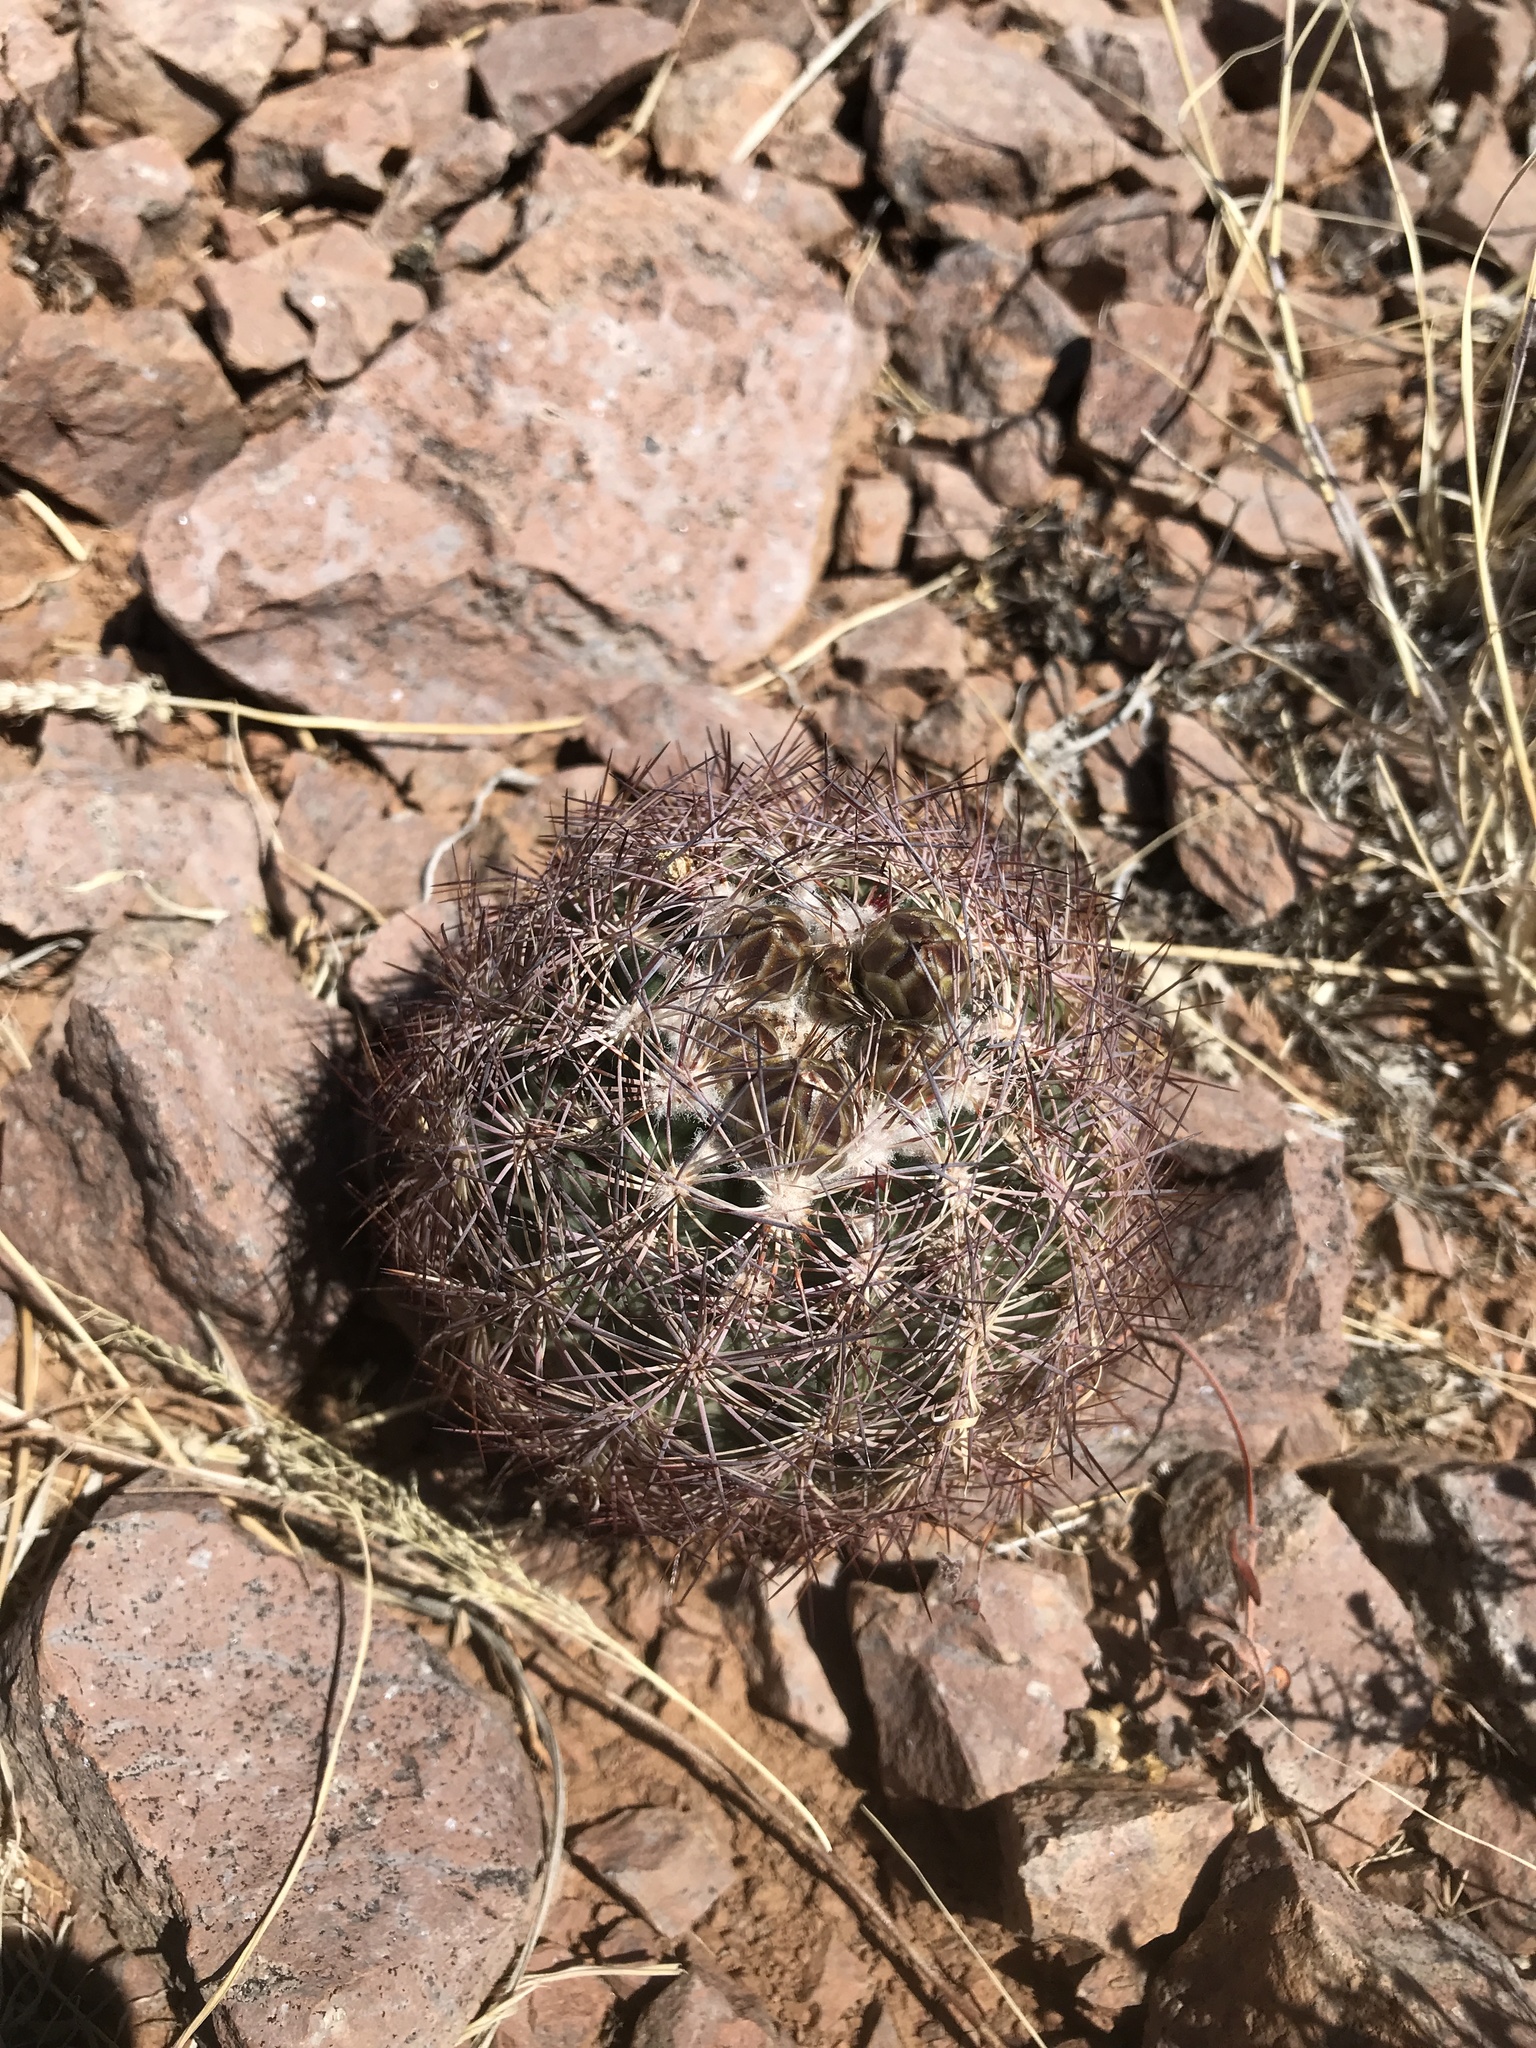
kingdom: Plantae
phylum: Tracheophyta
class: Magnoliopsida
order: Caryophyllales
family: Cactaceae
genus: Sclerocactus
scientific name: Sclerocactus intertextus
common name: White fish-hook cactus
